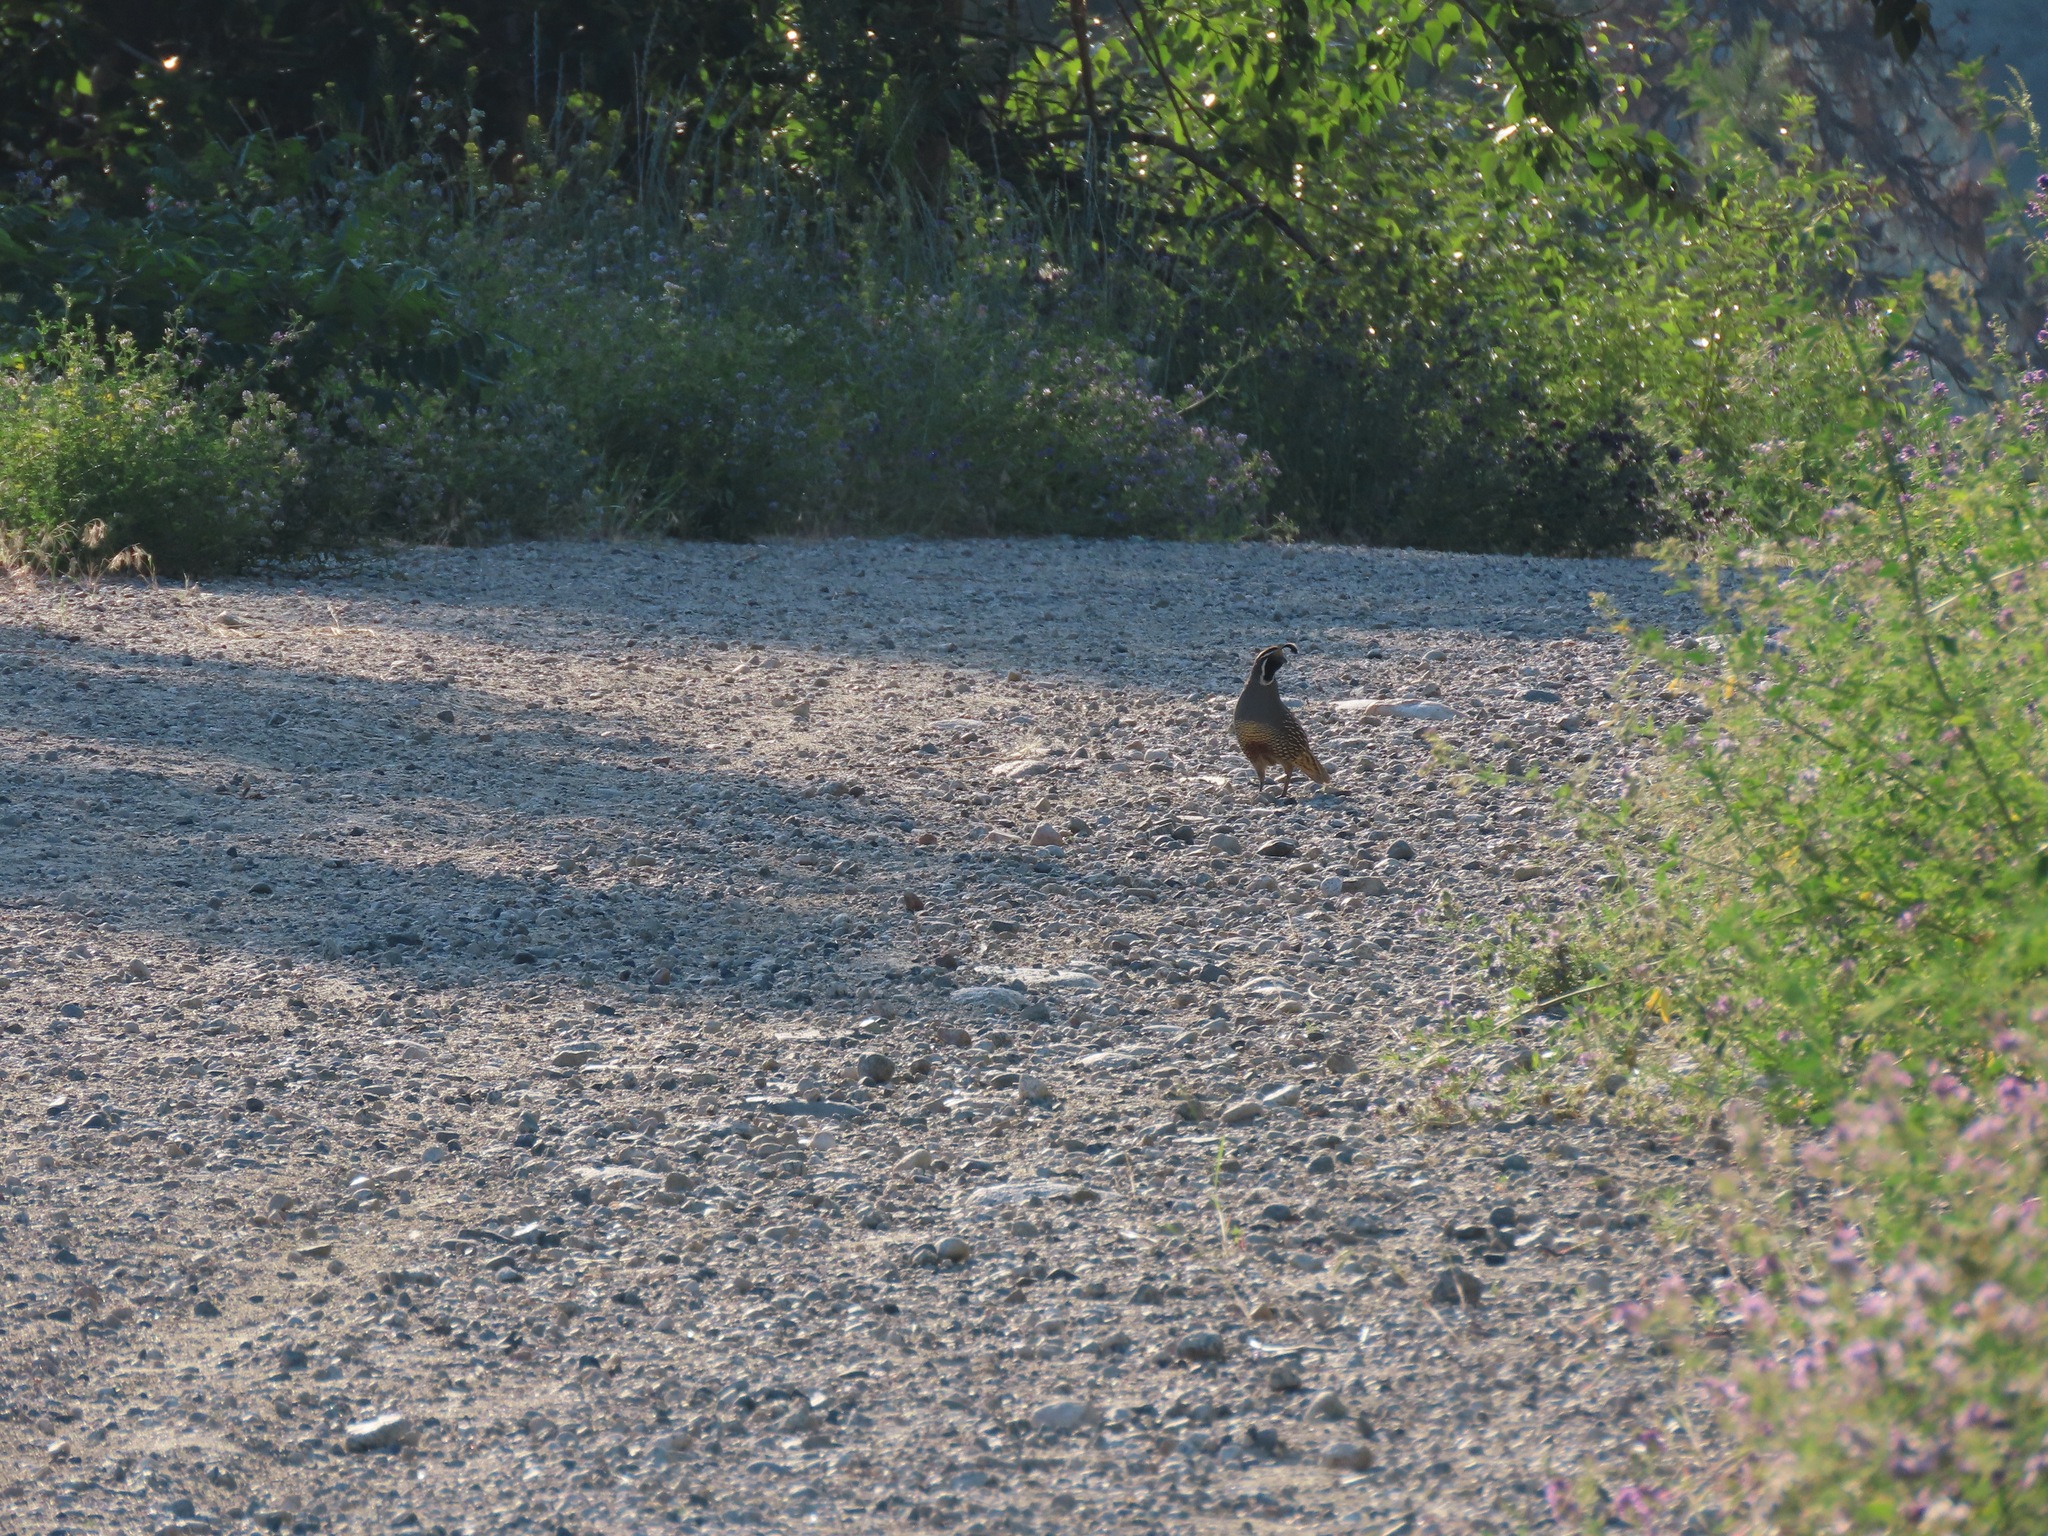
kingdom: Animalia
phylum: Chordata
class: Aves
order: Galliformes
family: Odontophoridae
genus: Callipepla
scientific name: Callipepla californica
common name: California quail
